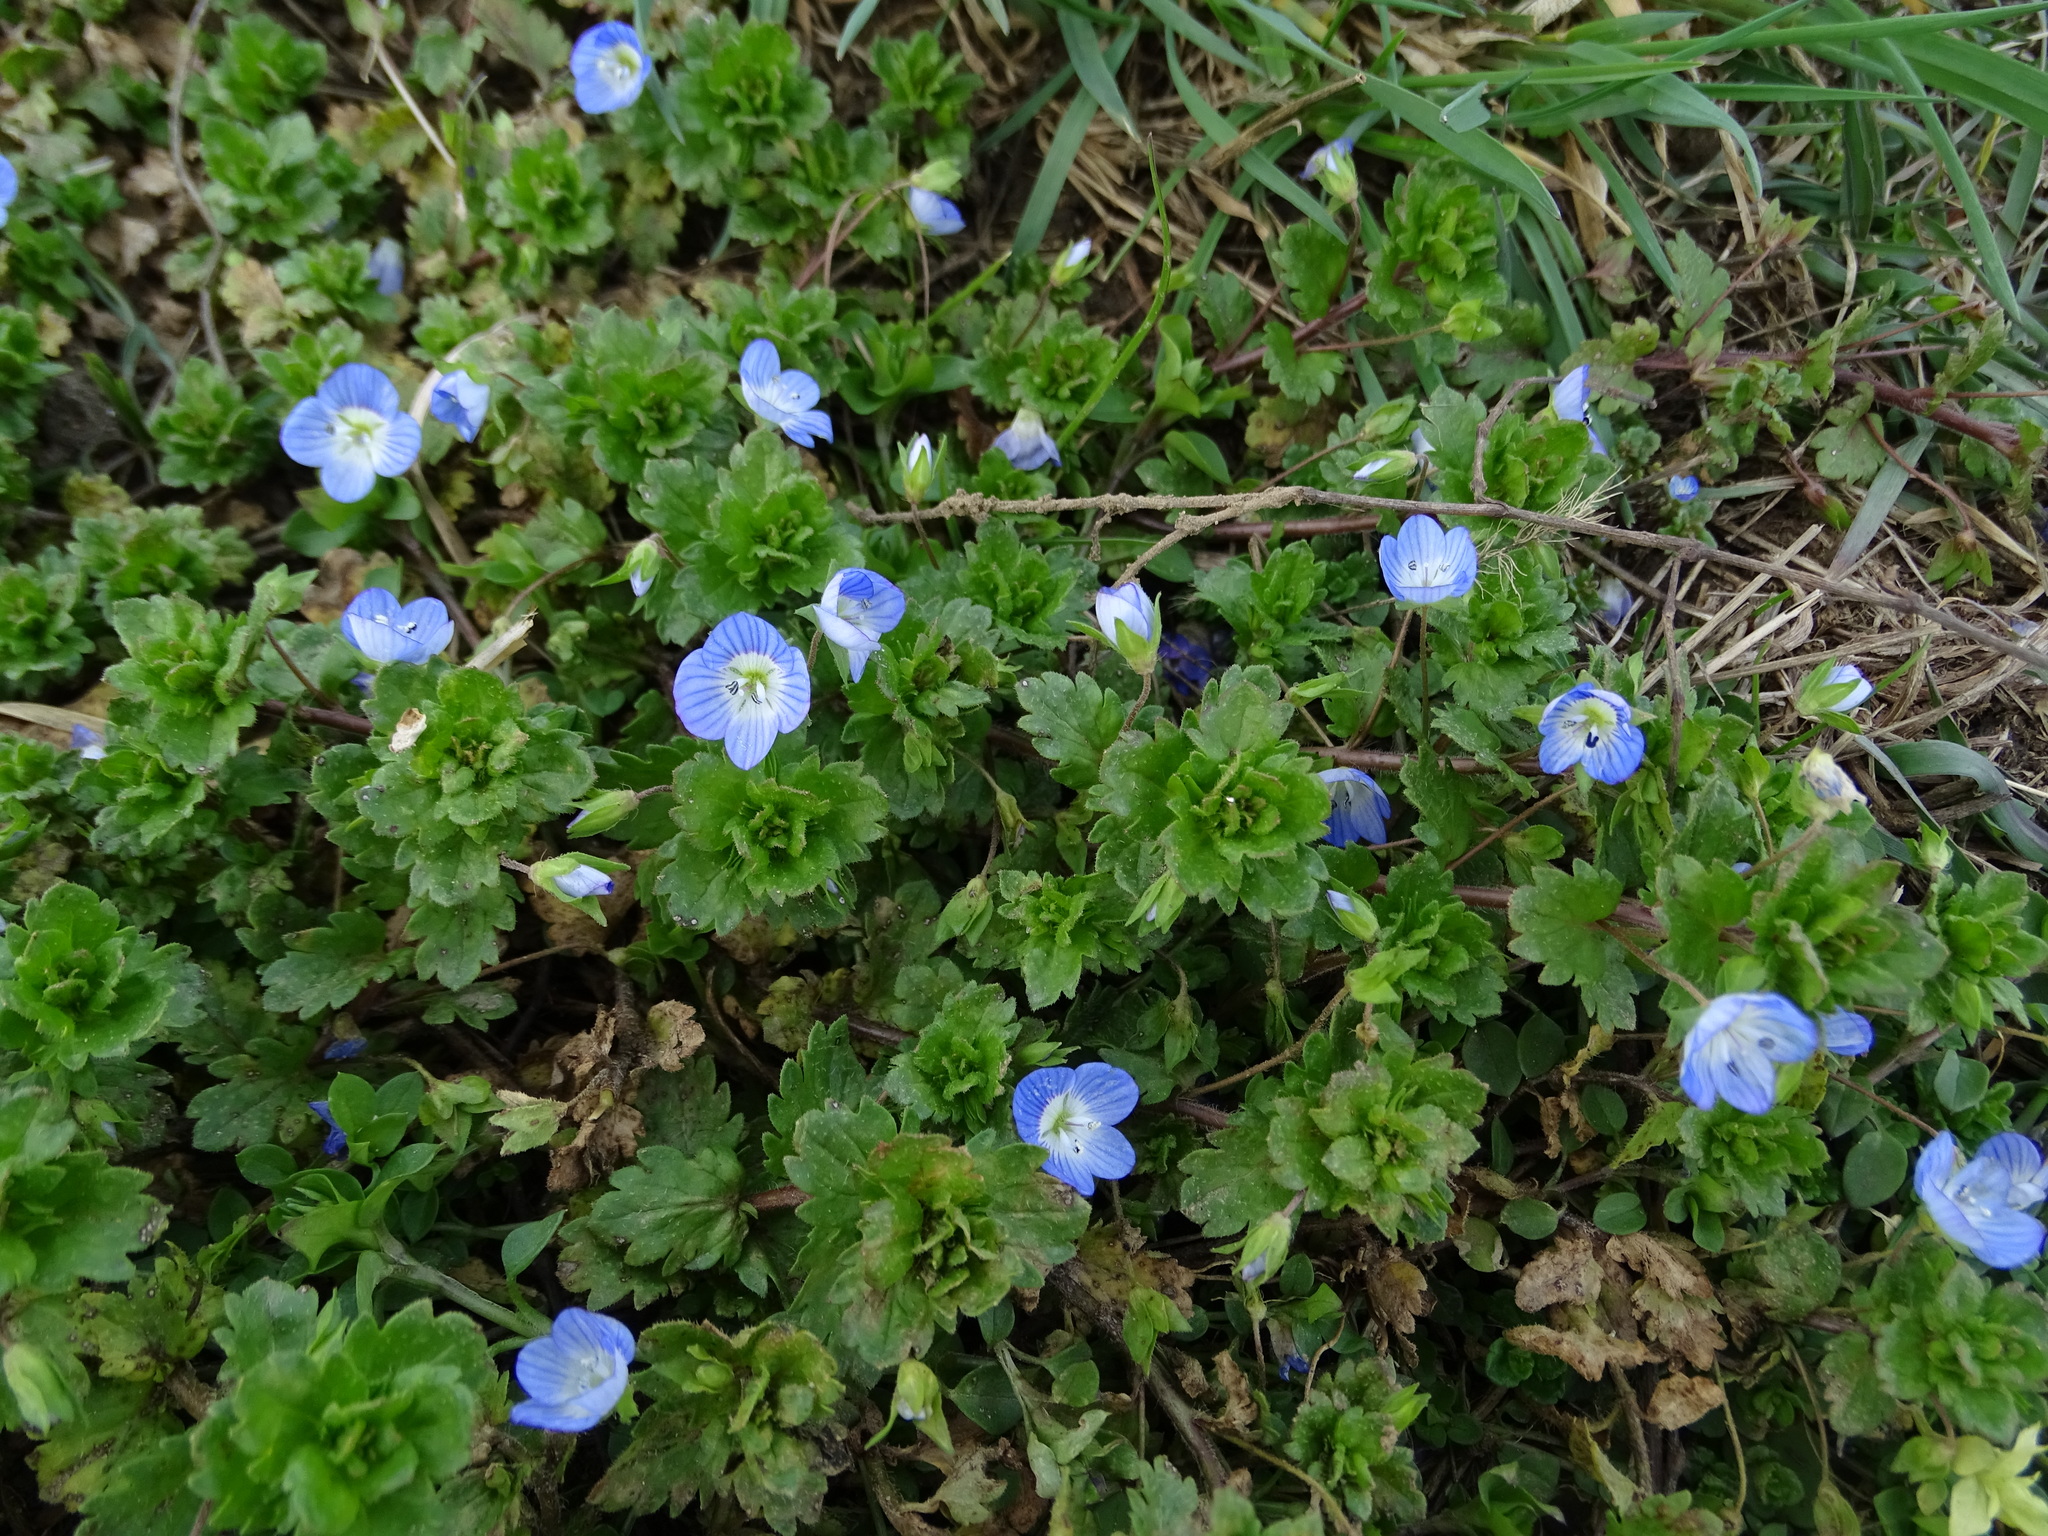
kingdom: Plantae
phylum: Tracheophyta
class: Magnoliopsida
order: Lamiales
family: Plantaginaceae
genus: Veronica
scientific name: Veronica persica
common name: Common field-speedwell
